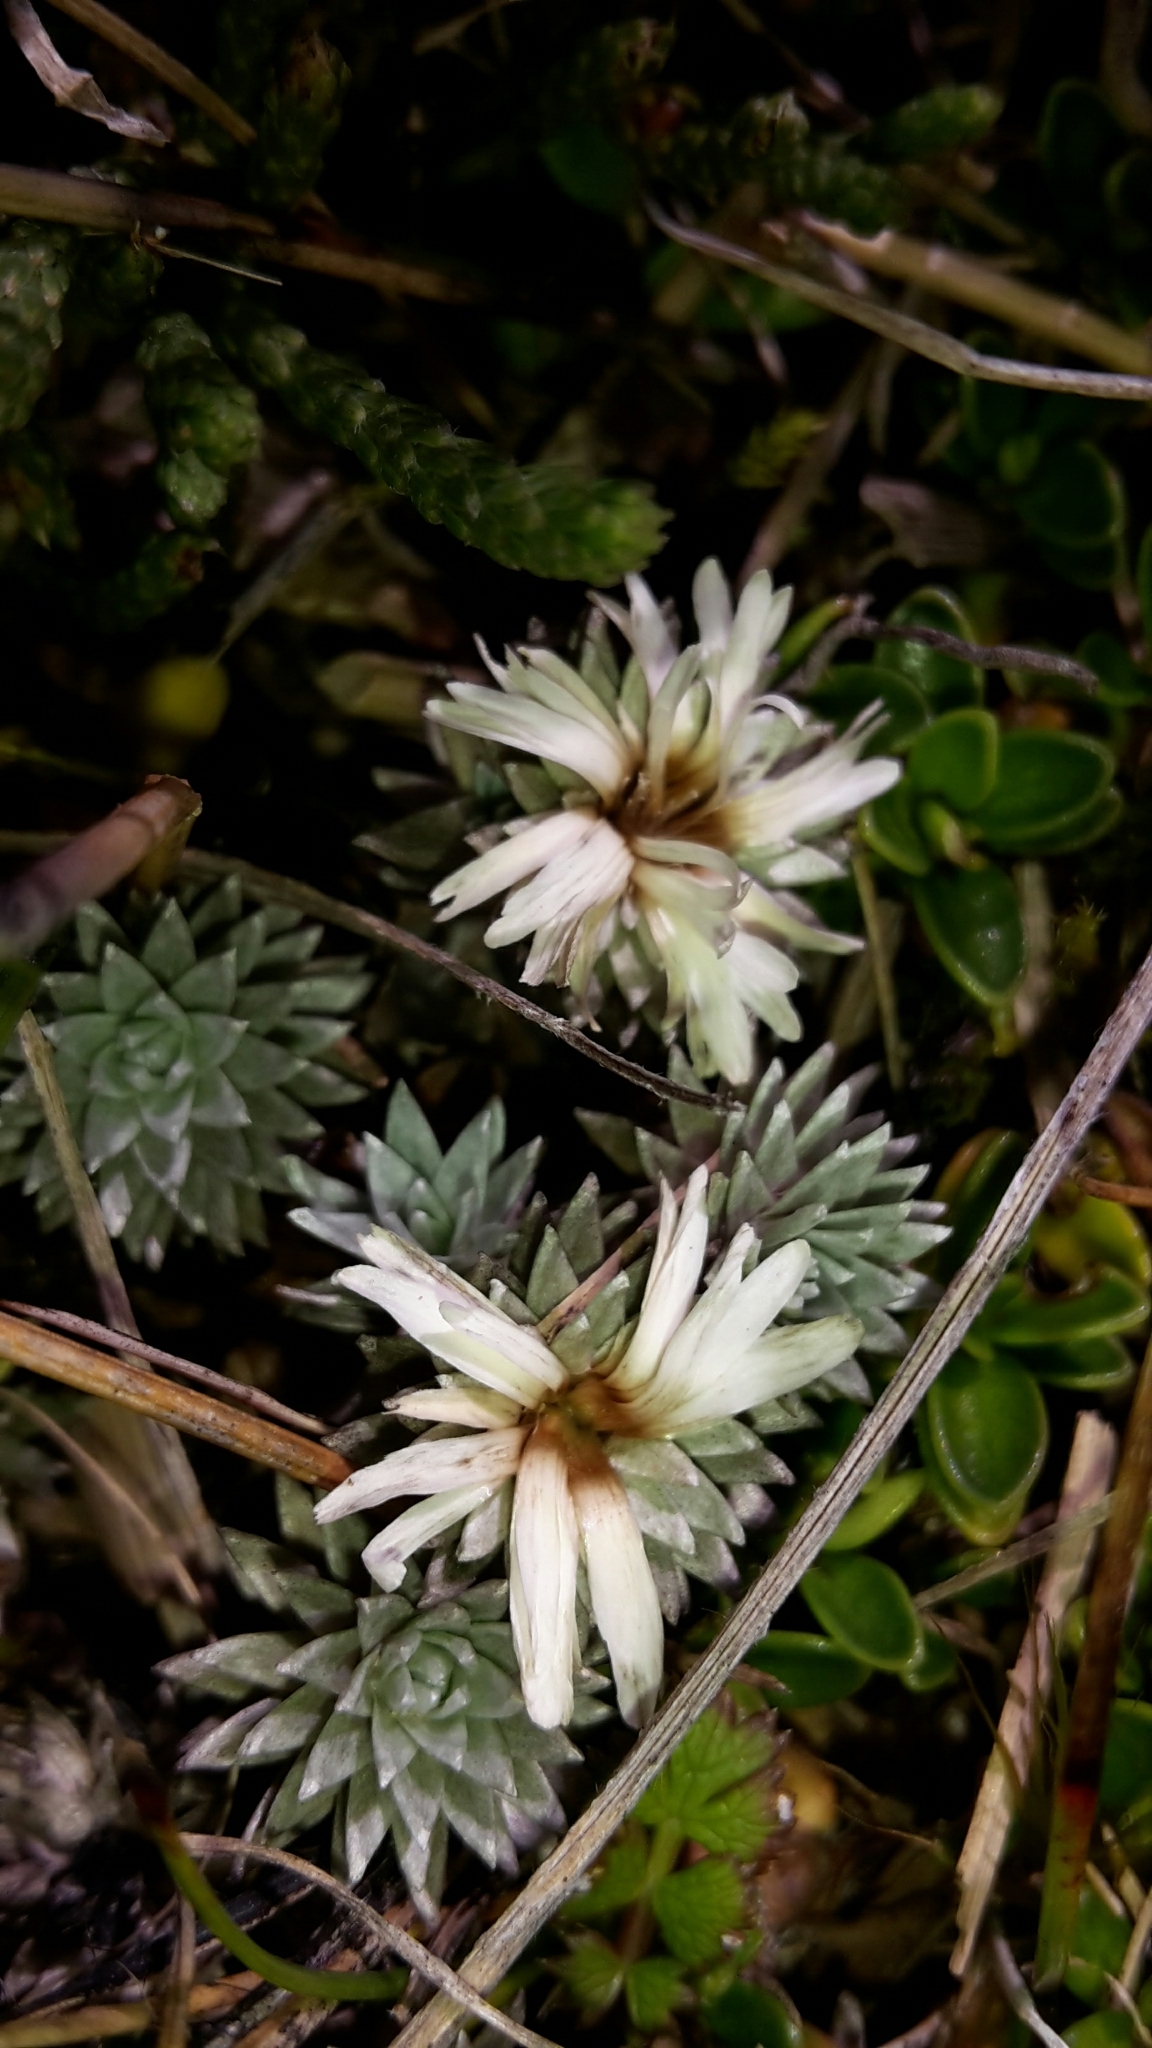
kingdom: Plantae
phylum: Tracheophyta
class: Magnoliopsida
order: Asterales
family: Asteraceae
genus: Raoulia
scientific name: Raoulia grandiflora
